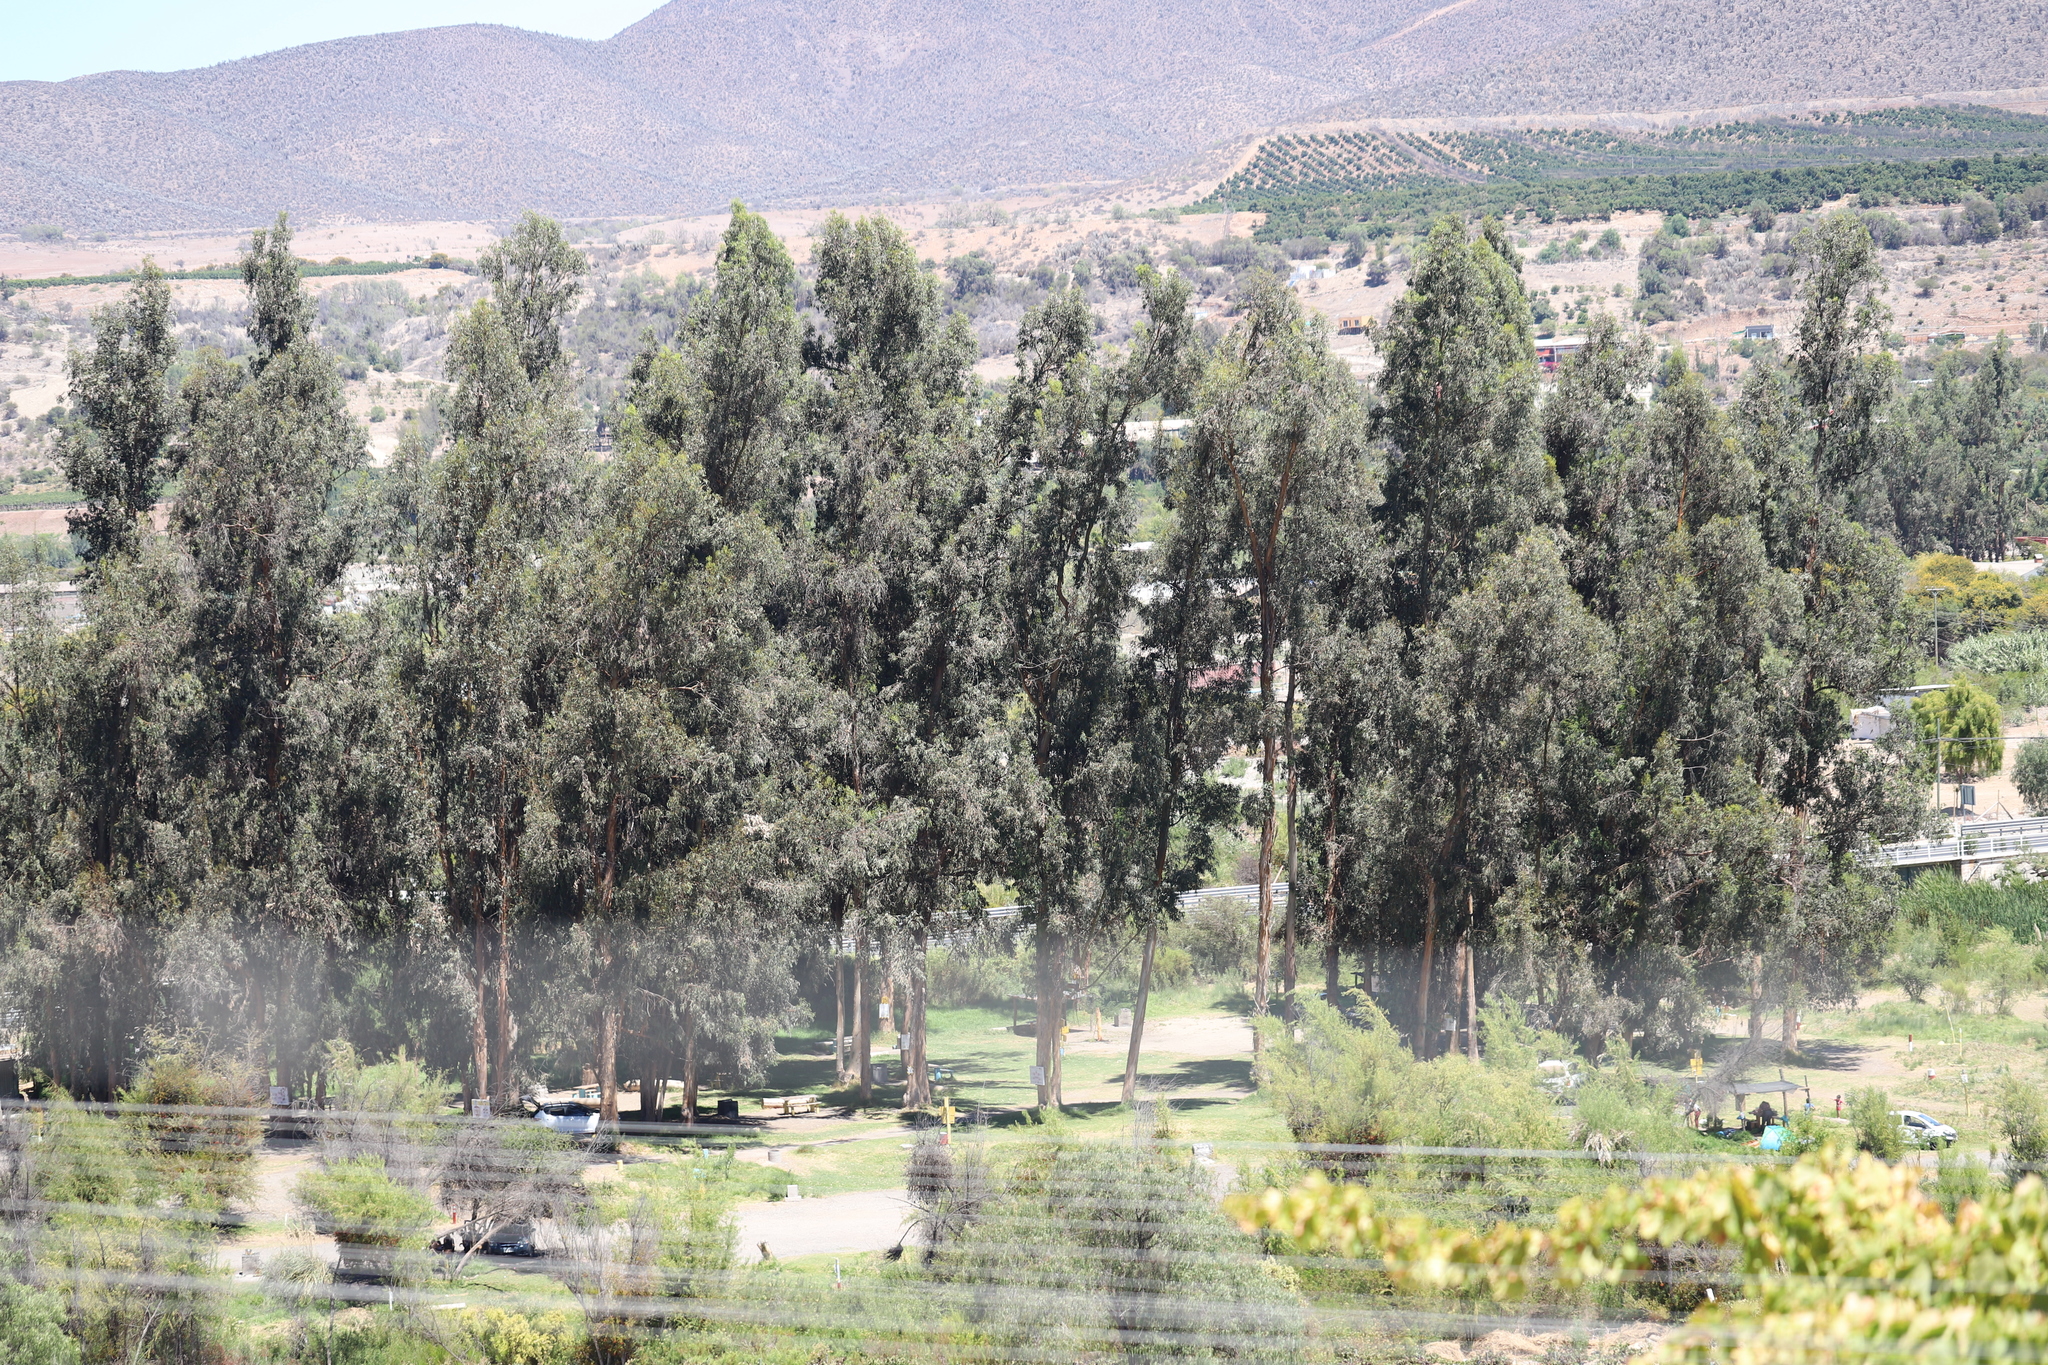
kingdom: Plantae
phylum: Tracheophyta
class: Magnoliopsida
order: Myrtales
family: Myrtaceae
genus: Eucalyptus
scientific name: Eucalyptus globulus
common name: Southern blue-gum
